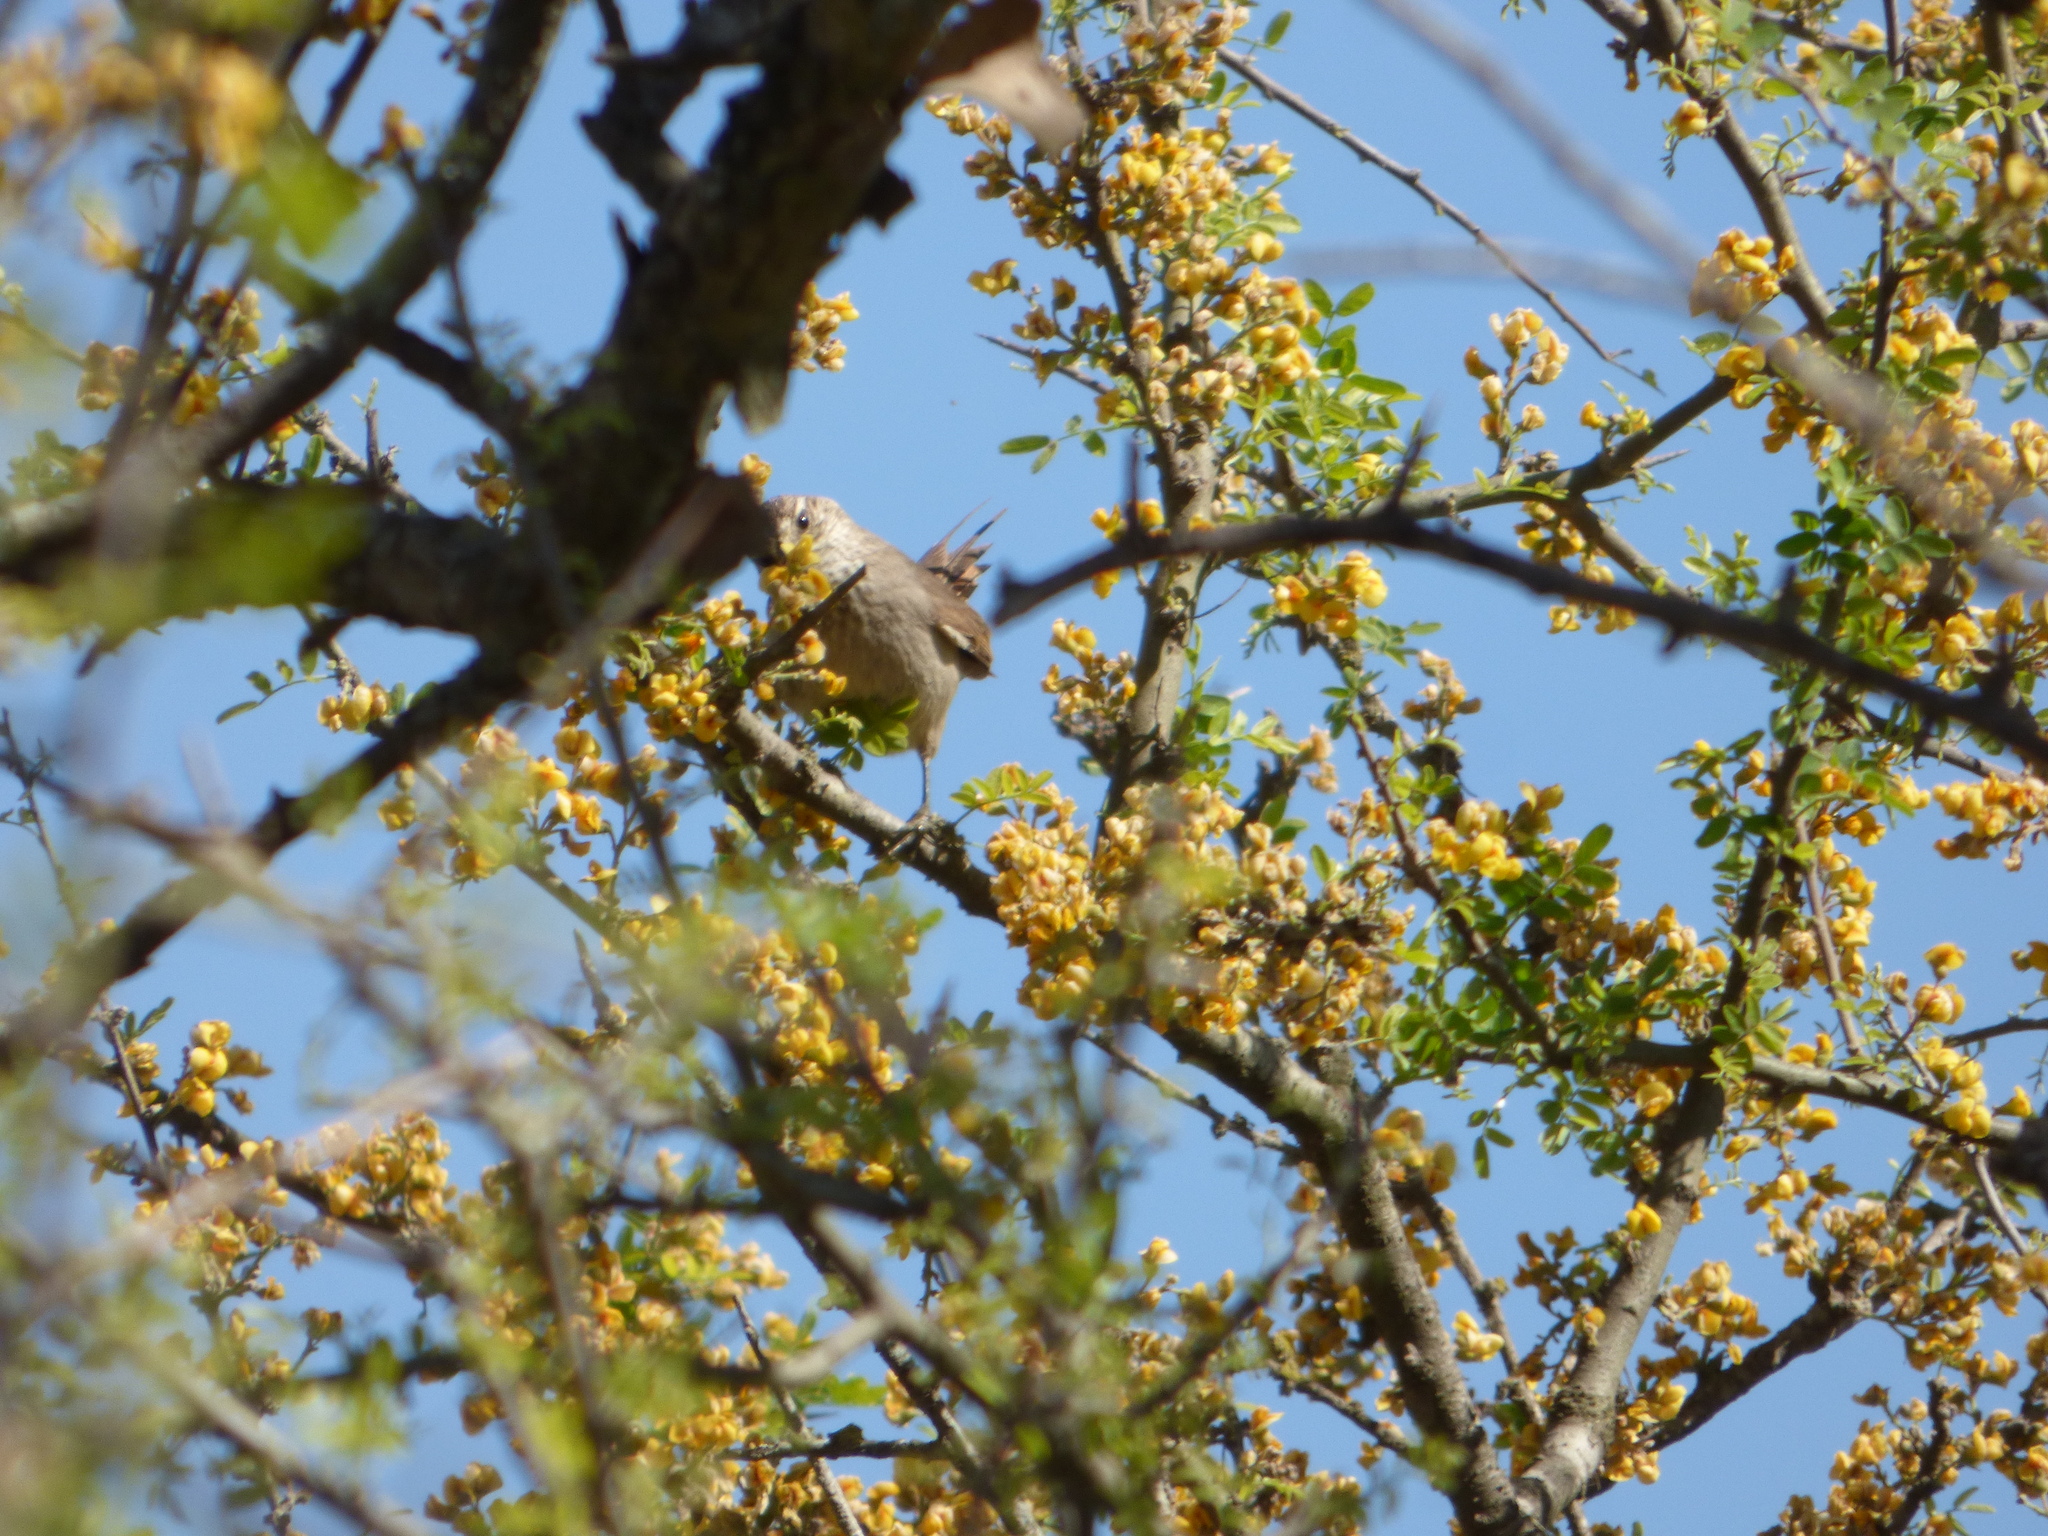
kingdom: Animalia
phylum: Chordata
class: Aves
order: Passeriformes
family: Furnariidae
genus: Leptasthenura
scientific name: Leptasthenura platensis
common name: Tufted tit-spinetail
